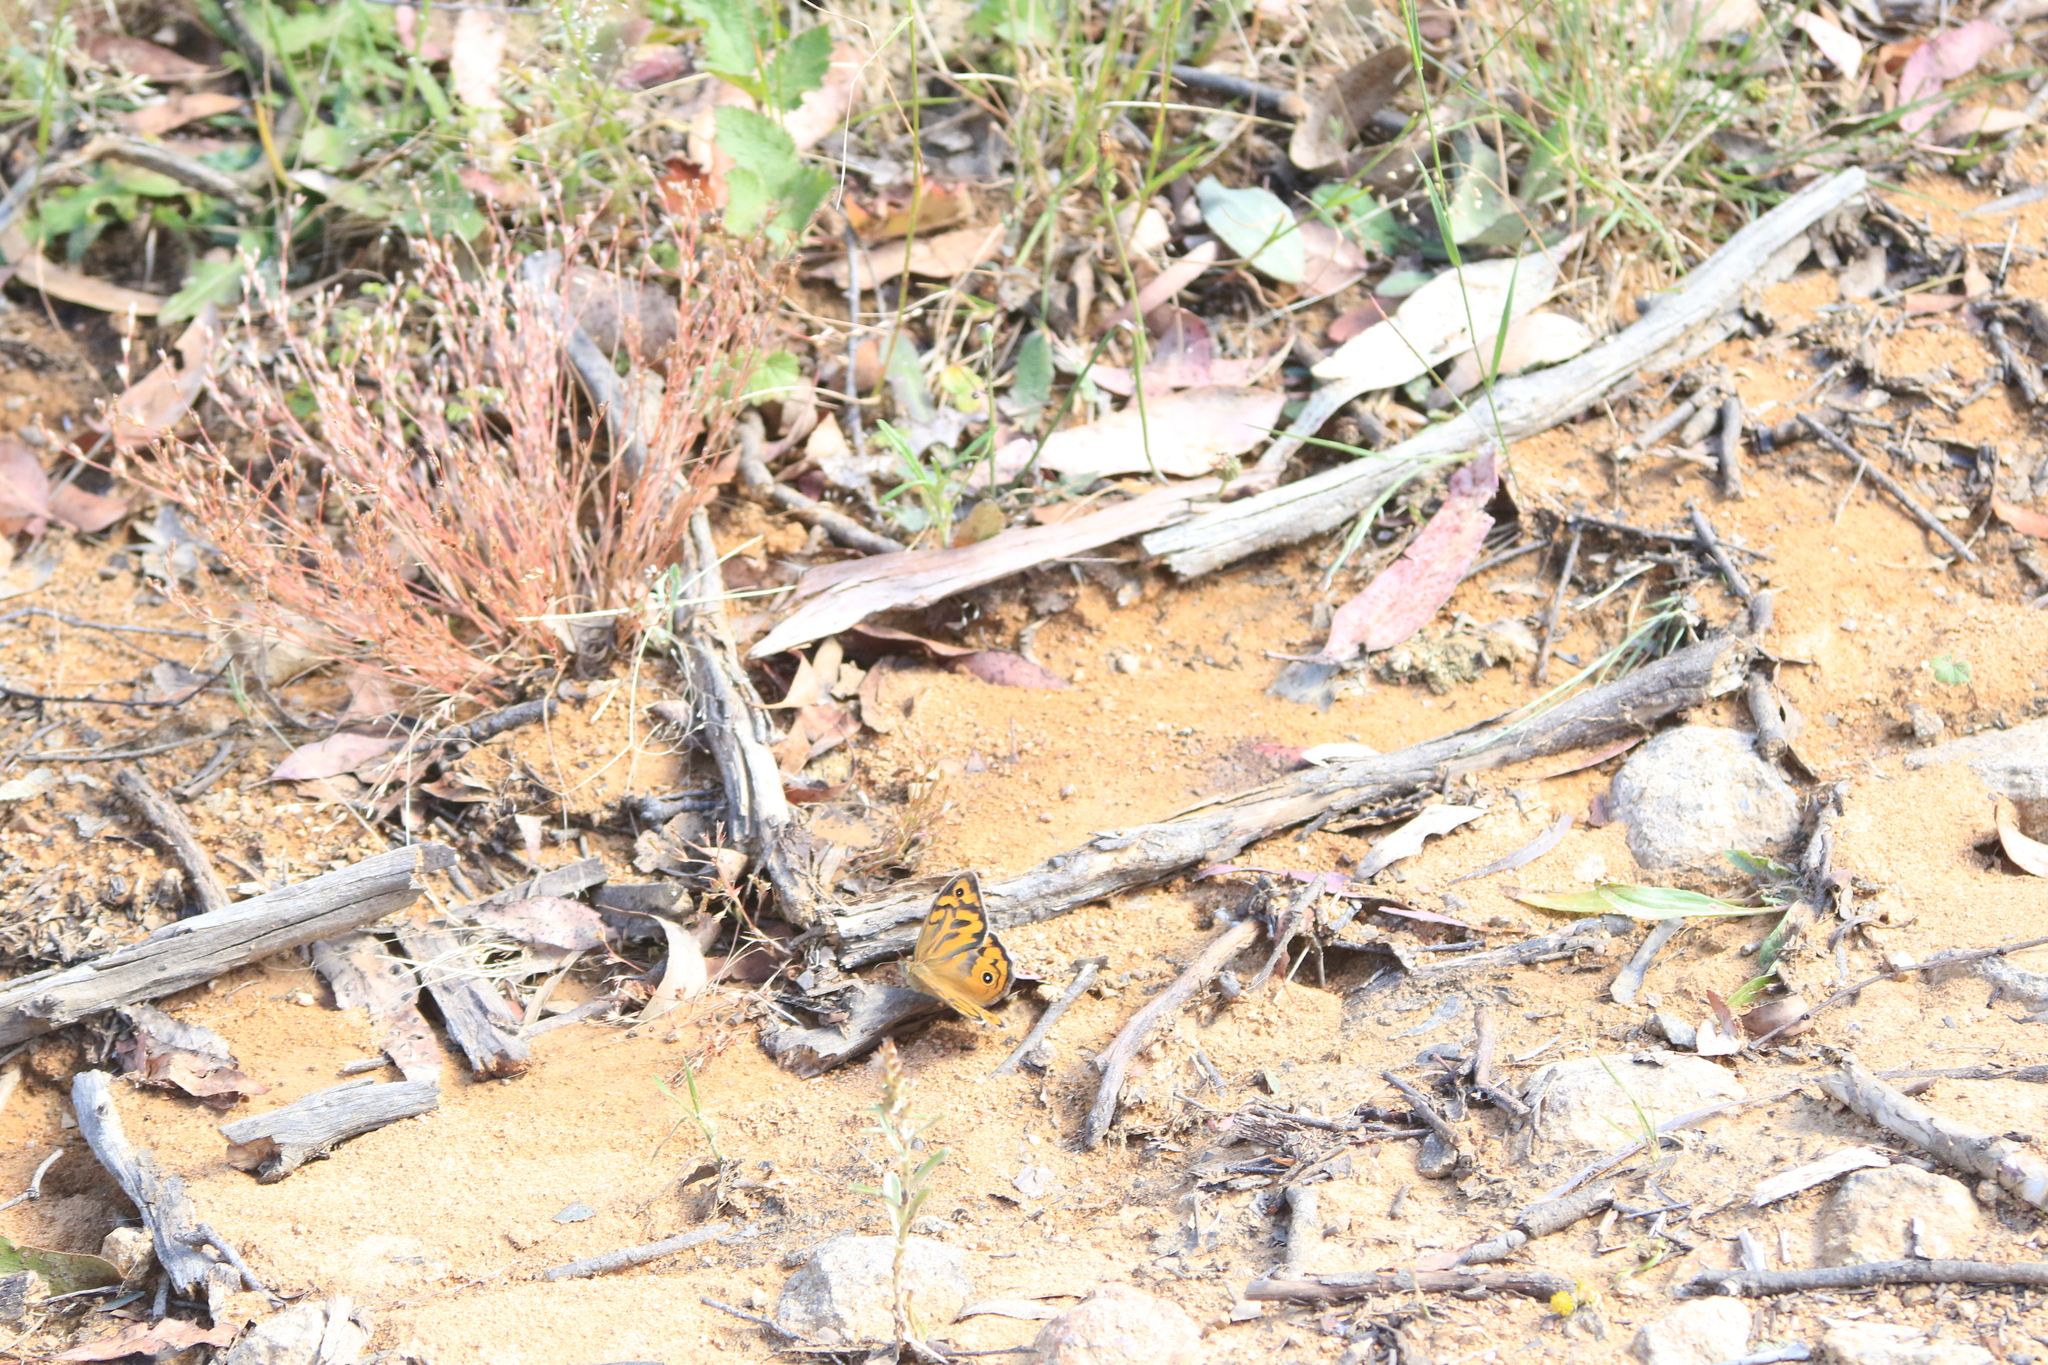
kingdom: Animalia
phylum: Arthropoda
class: Insecta
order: Lepidoptera
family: Nymphalidae
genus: Heteronympha
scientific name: Heteronympha merope
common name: Common brown
